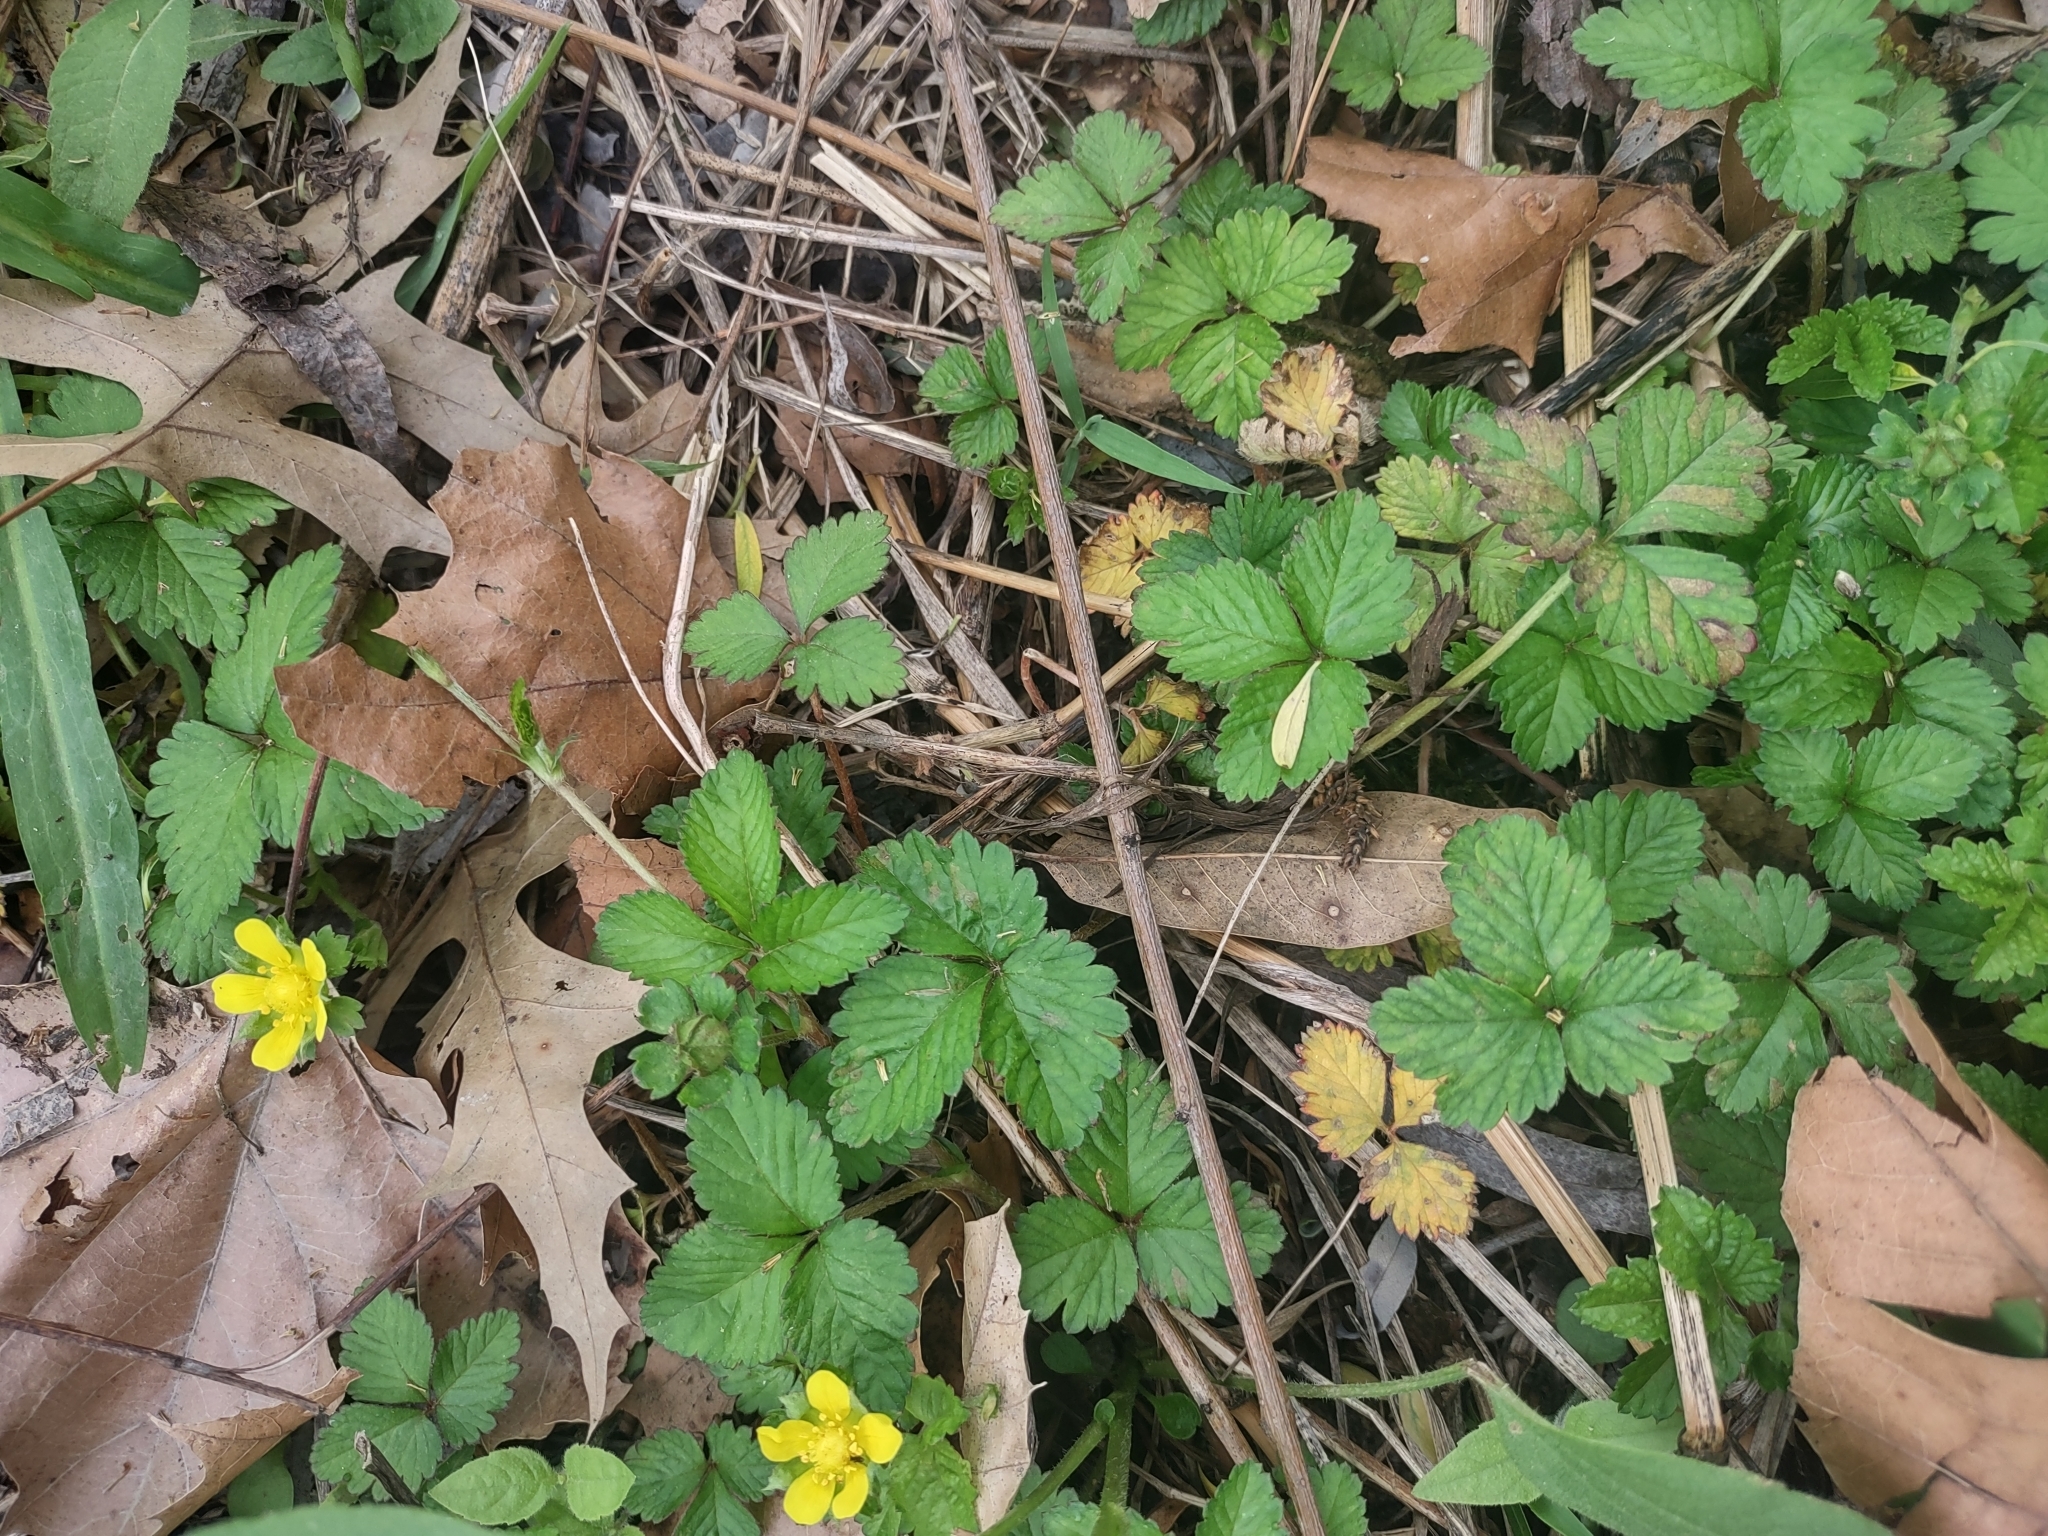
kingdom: Plantae
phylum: Tracheophyta
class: Magnoliopsida
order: Rosales
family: Rosaceae
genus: Potentilla
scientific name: Potentilla indica
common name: Yellow-flowered strawberry
